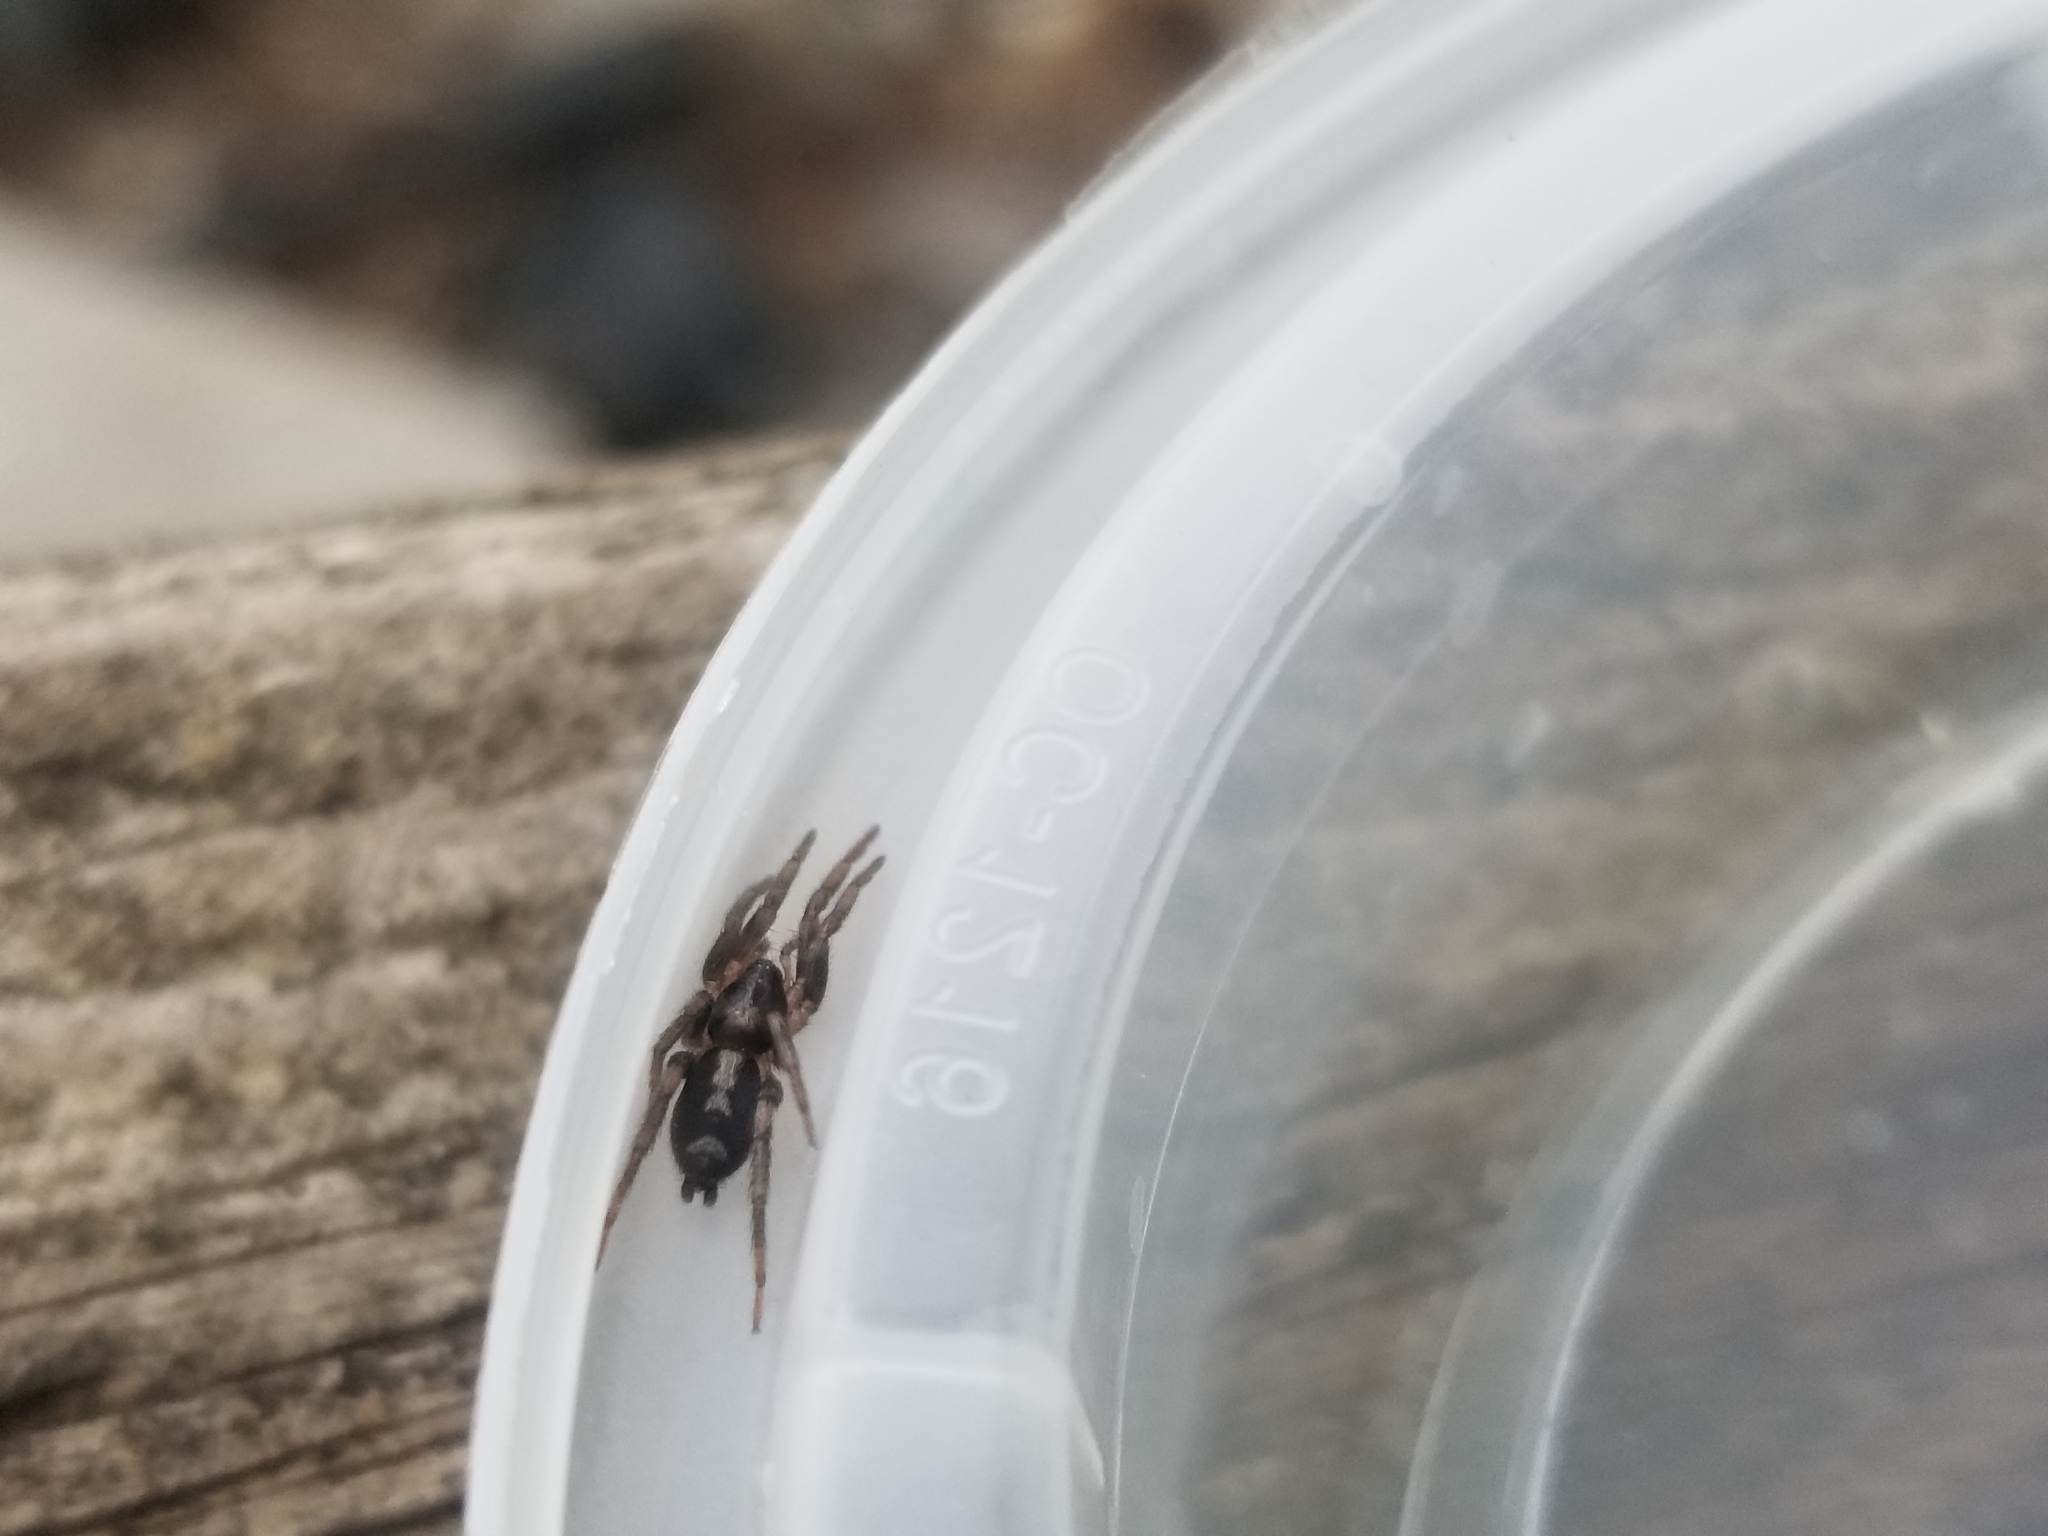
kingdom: Animalia
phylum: Arthropoda
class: Arachnida
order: Araneae
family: Gnaphosidae
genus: Herpyllus
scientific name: Herpyllus ecclesiasticus
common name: Eastern parson spider
